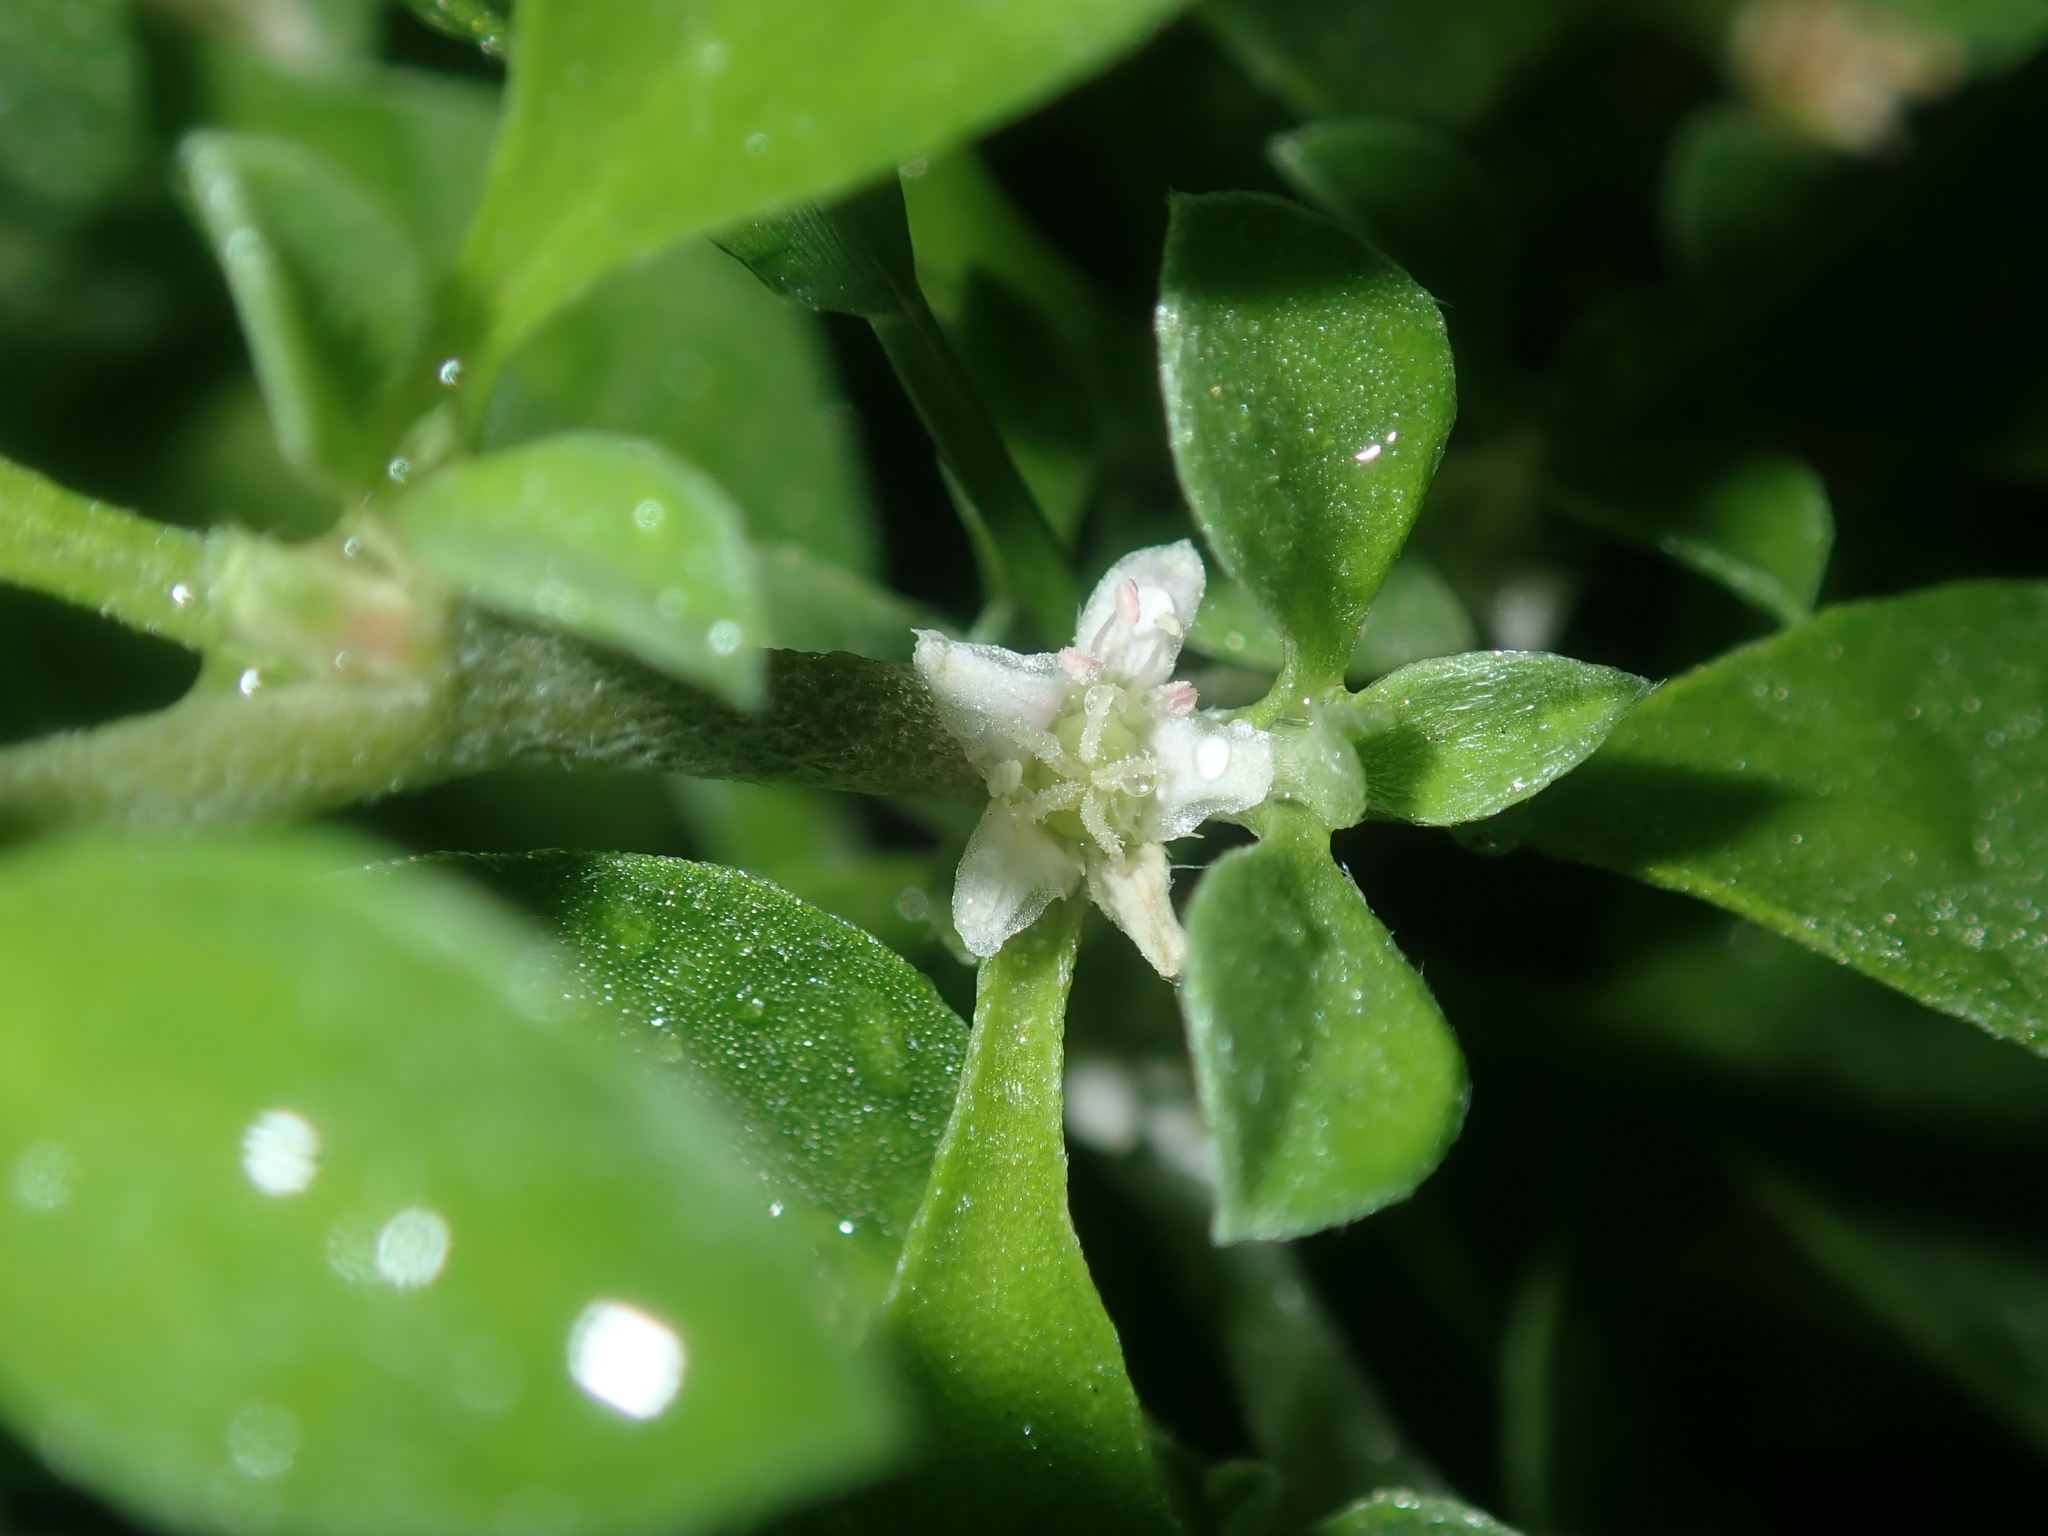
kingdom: Plantae
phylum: Tracheophyta
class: Magnoliopsida
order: Caryophyllales
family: Aizoaceae
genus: Aizoon
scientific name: Aizoon pubescens
